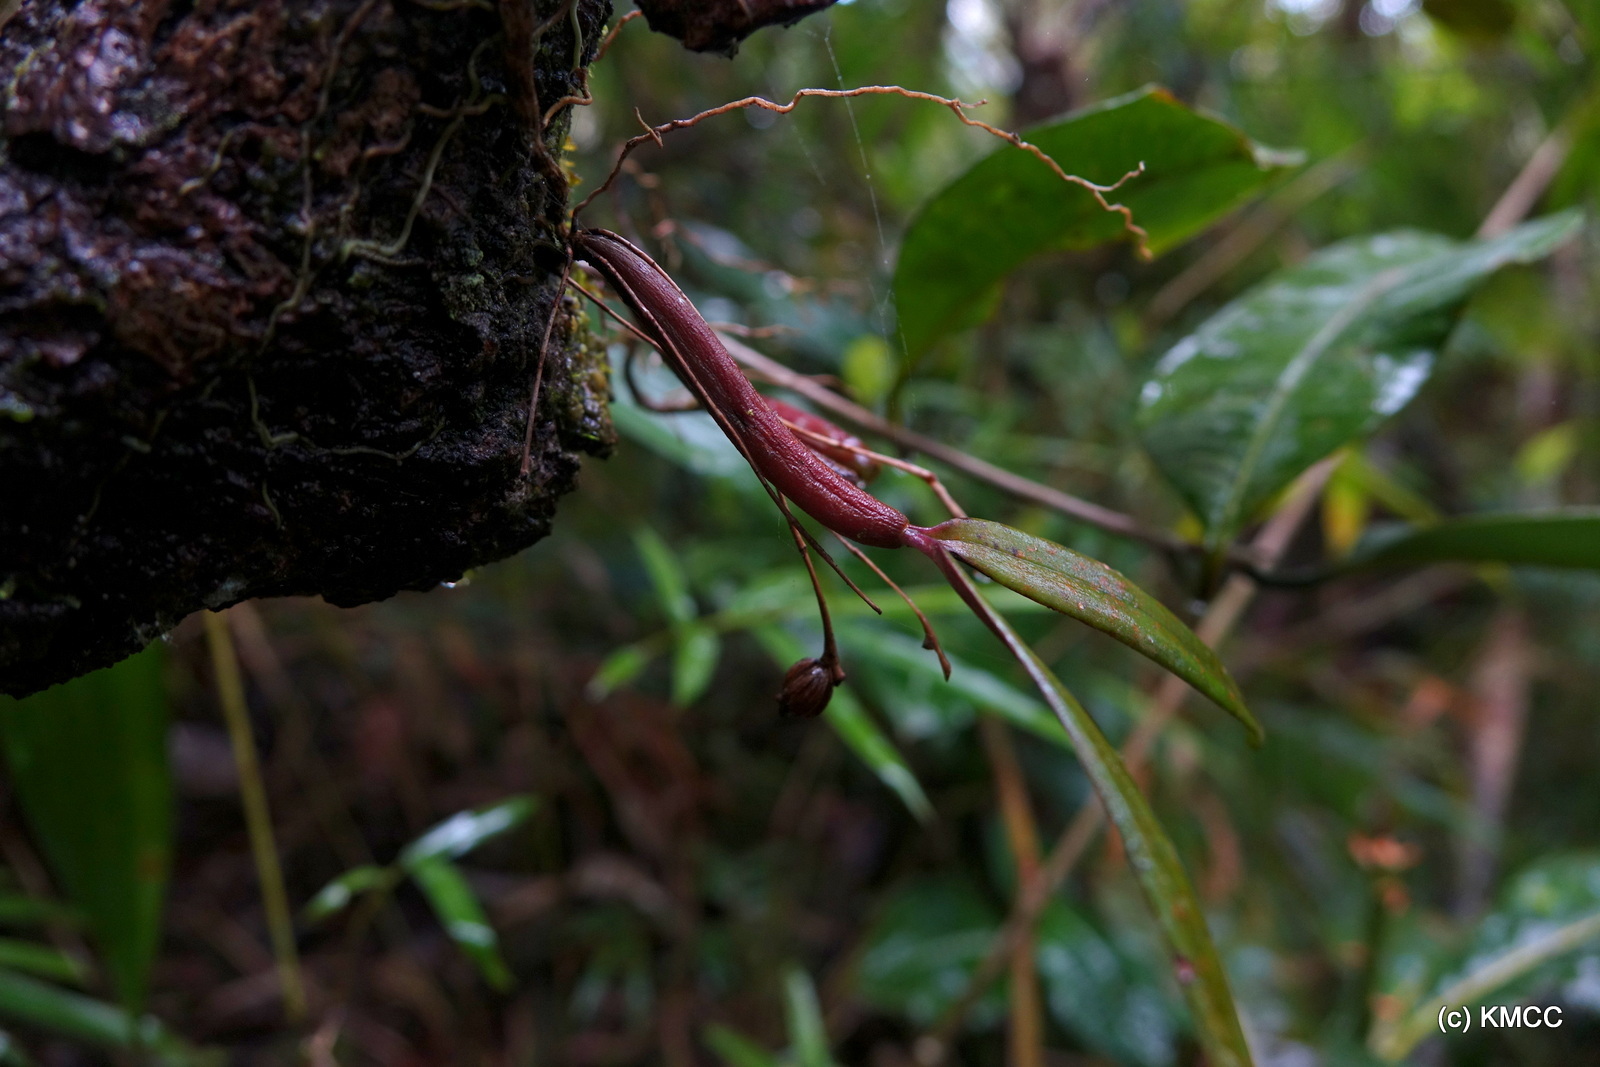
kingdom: Plantae
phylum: Tracheophyta
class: Liliopsida
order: Asparagales
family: Orchidaceae
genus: Bulbophyllum
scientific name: Bulbophyllum aubrevillei
